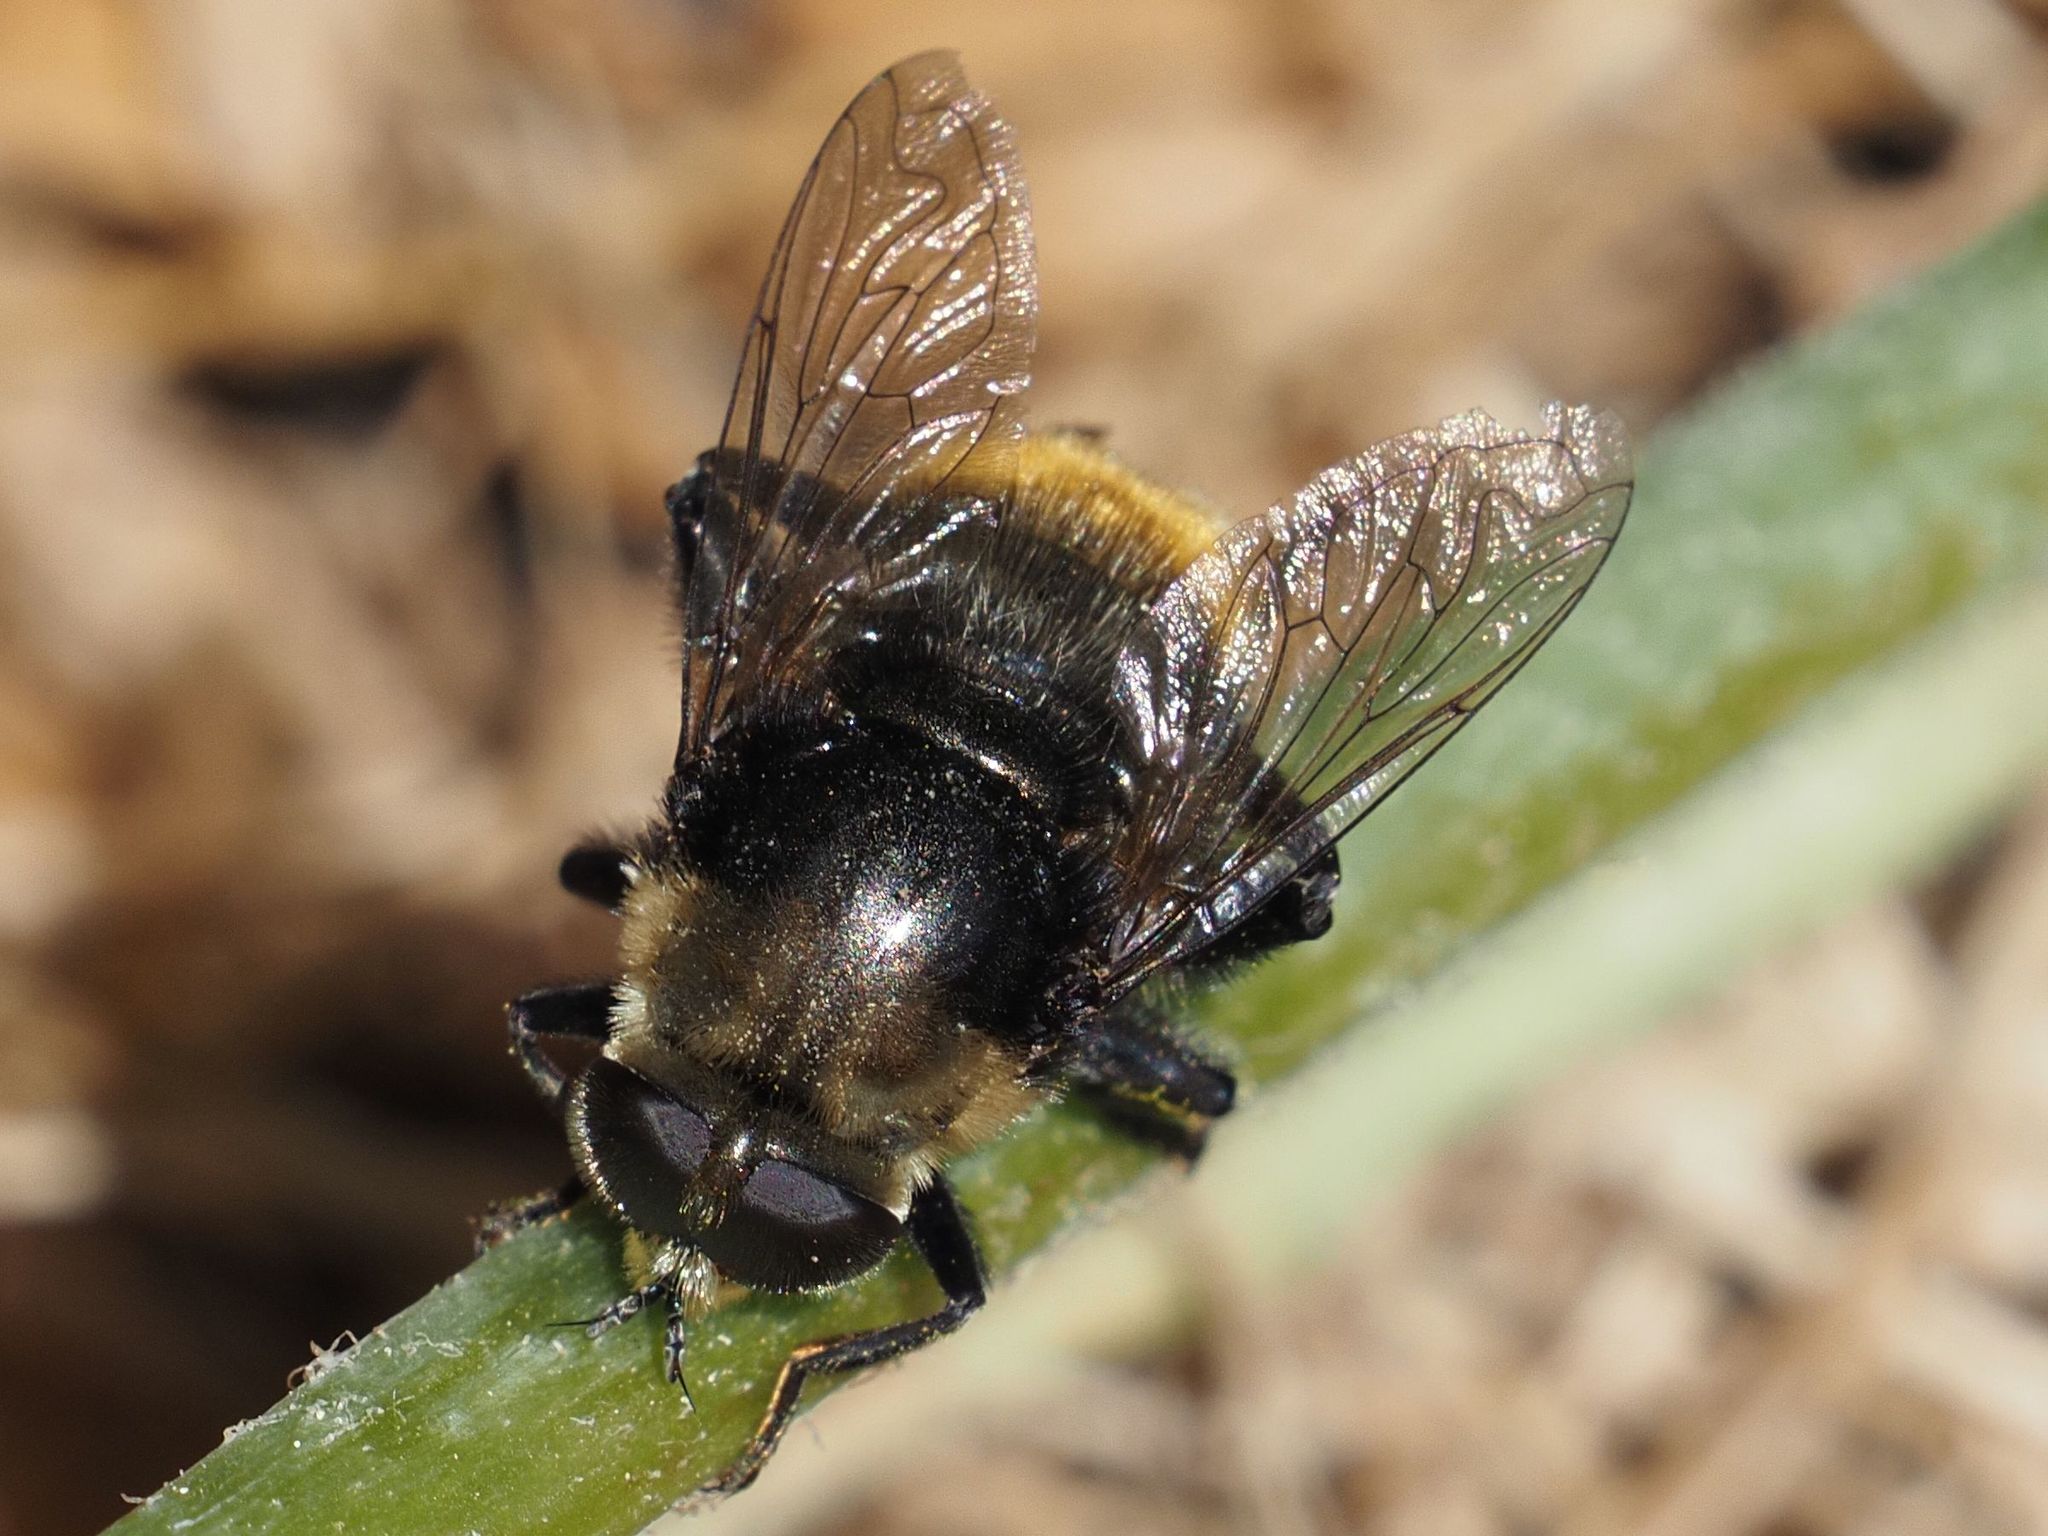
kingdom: Animalia
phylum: Arthropoda
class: Insecta
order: Diptera
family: Syrphidae
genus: Merodon
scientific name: Merodon equestris
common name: Greater bulb-fly
